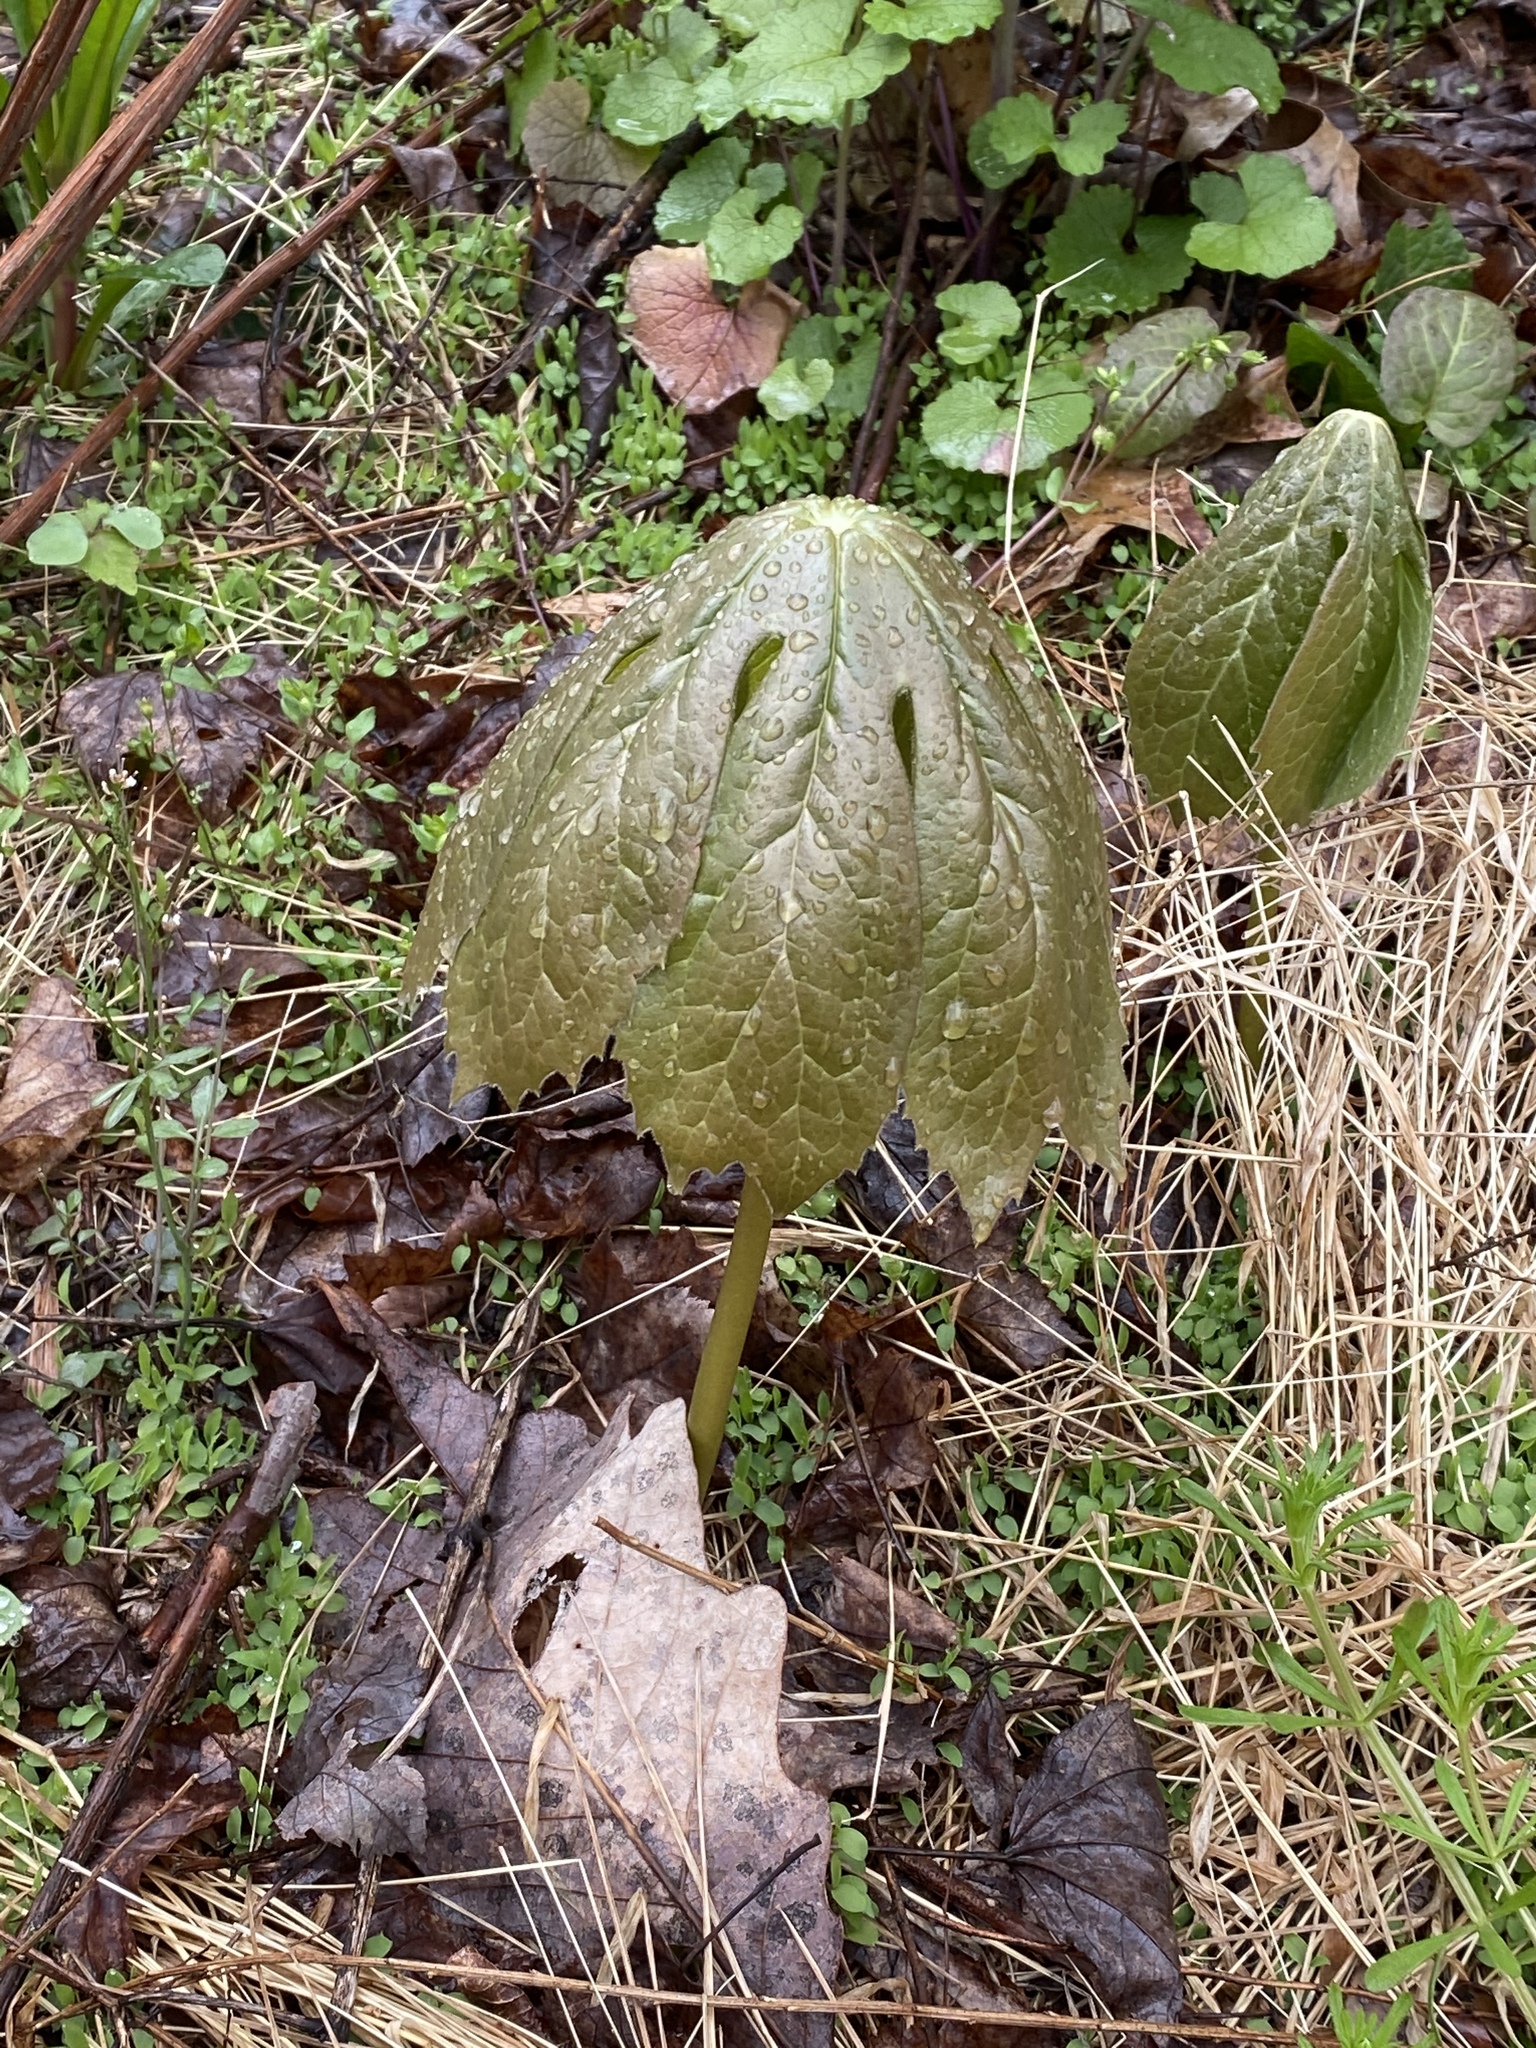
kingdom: Plantae
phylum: Tracheophyta
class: Magnoliopsida
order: Ranunculales
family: Berberidaceae
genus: Podophyllum
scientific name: Podophyllum peltatum
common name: Wild mandrake
